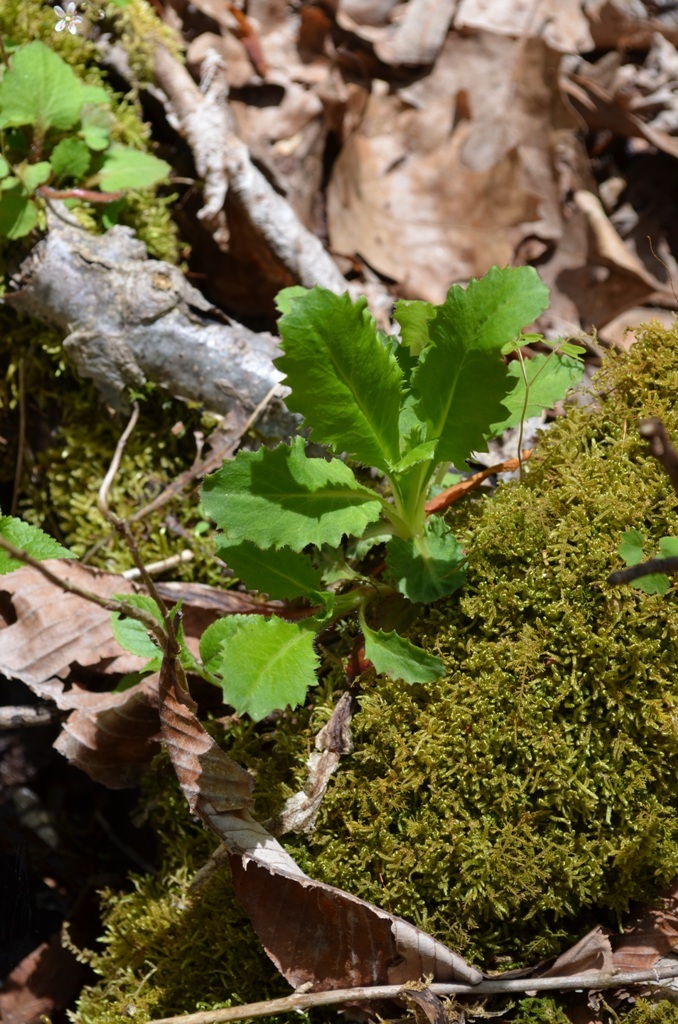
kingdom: Plantae
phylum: Tracheophyta
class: Magnoliopsida
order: Saxifragales
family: Saxifragaceae
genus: Micranthes
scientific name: Micranthes micranthidifolia
